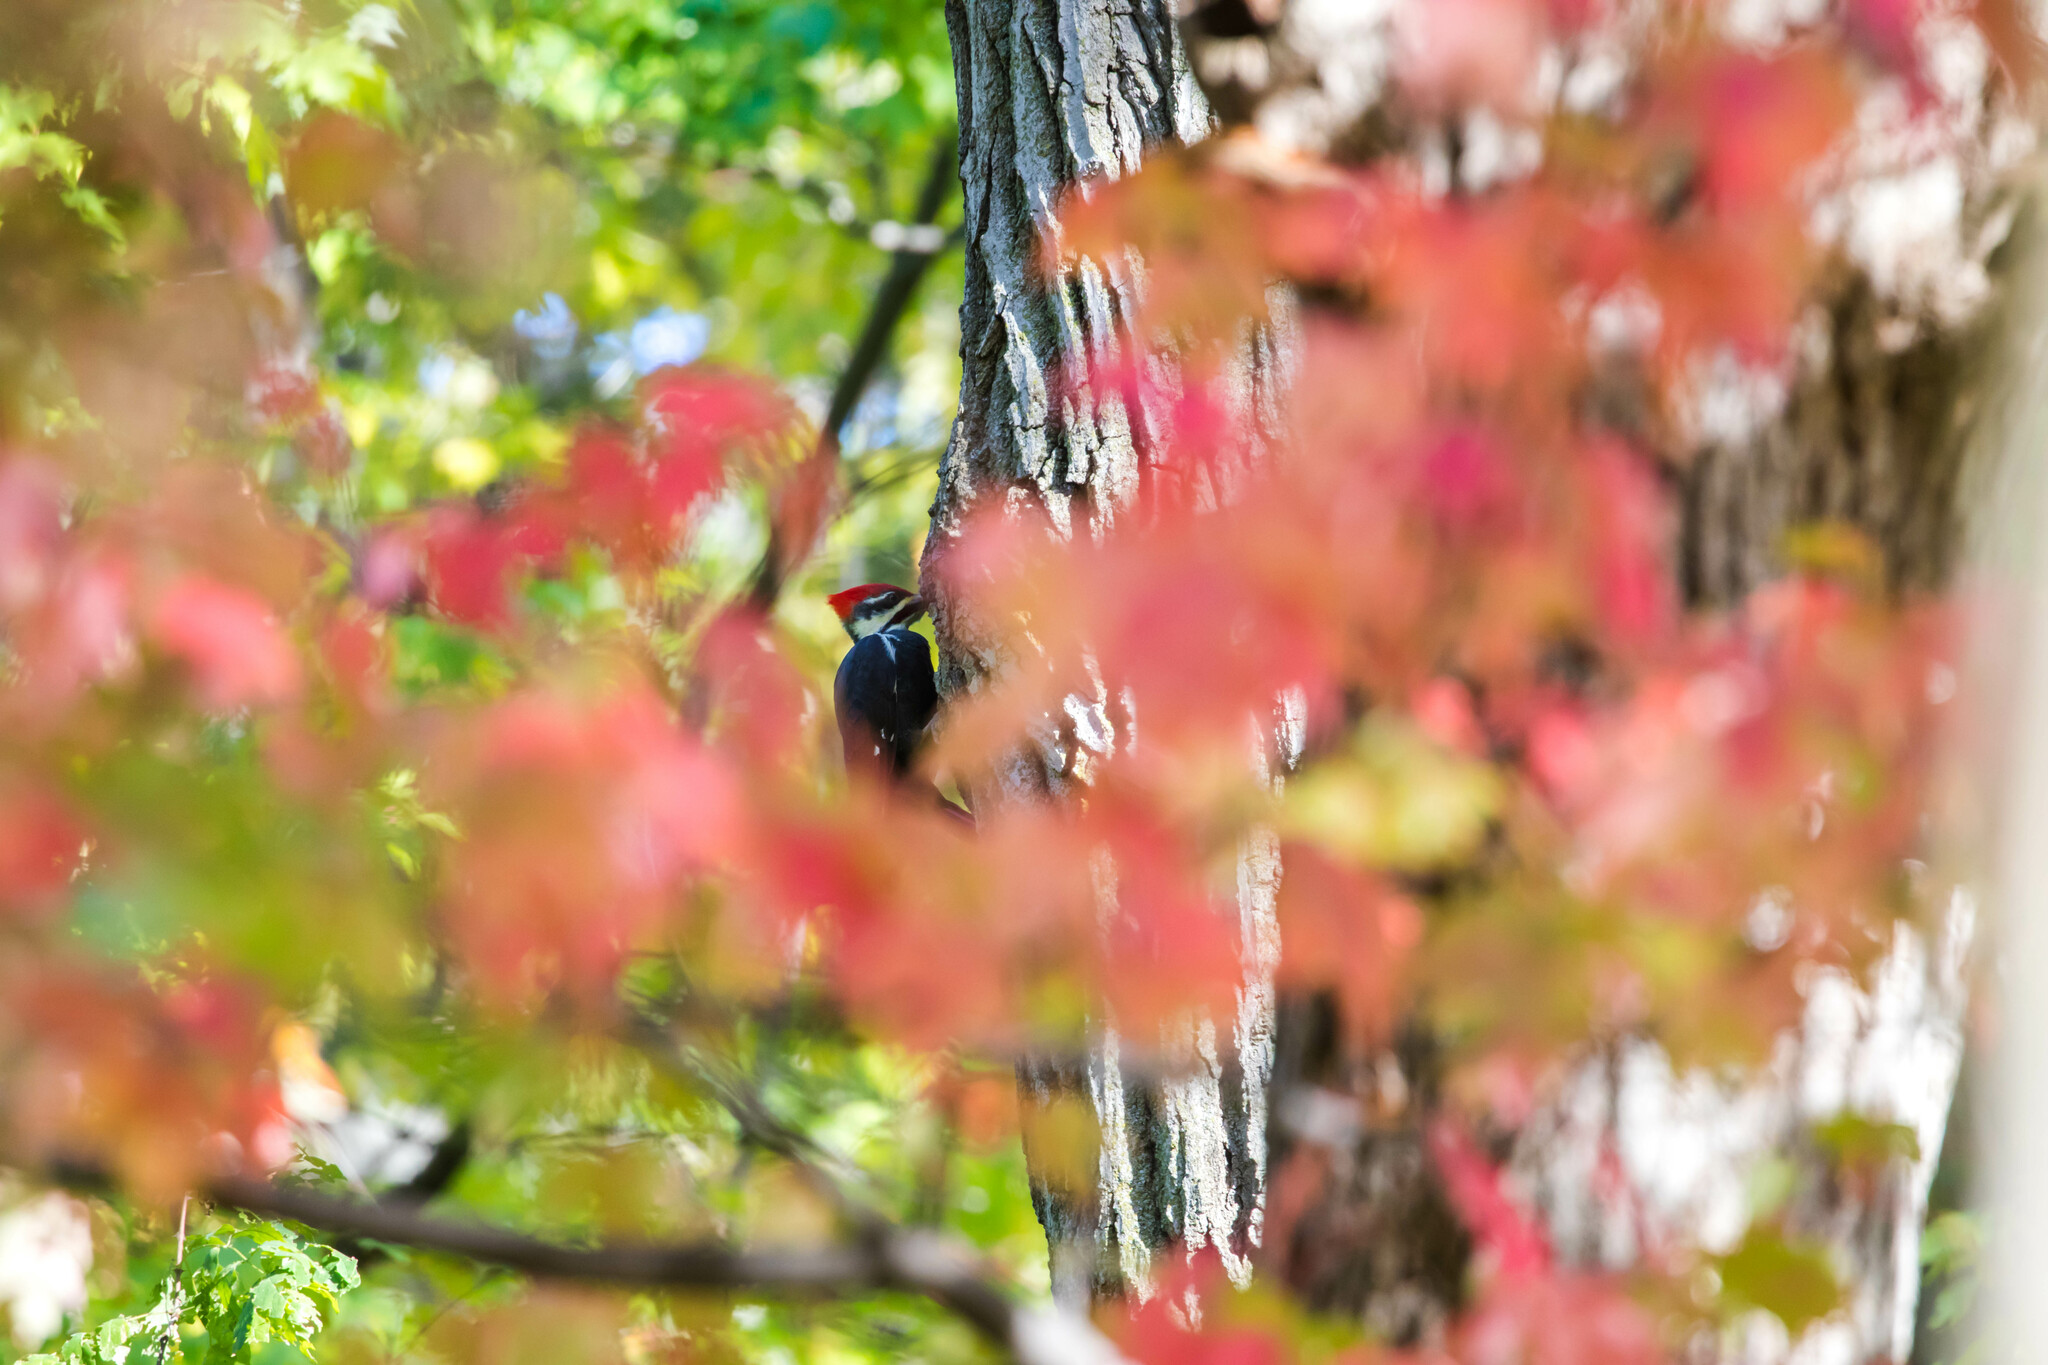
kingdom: Animalia
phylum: Chordata
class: Aves
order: Piciformes
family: Picidae
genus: Dryocopus
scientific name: Dryocopus pileatus
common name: Pileated woodpecker
